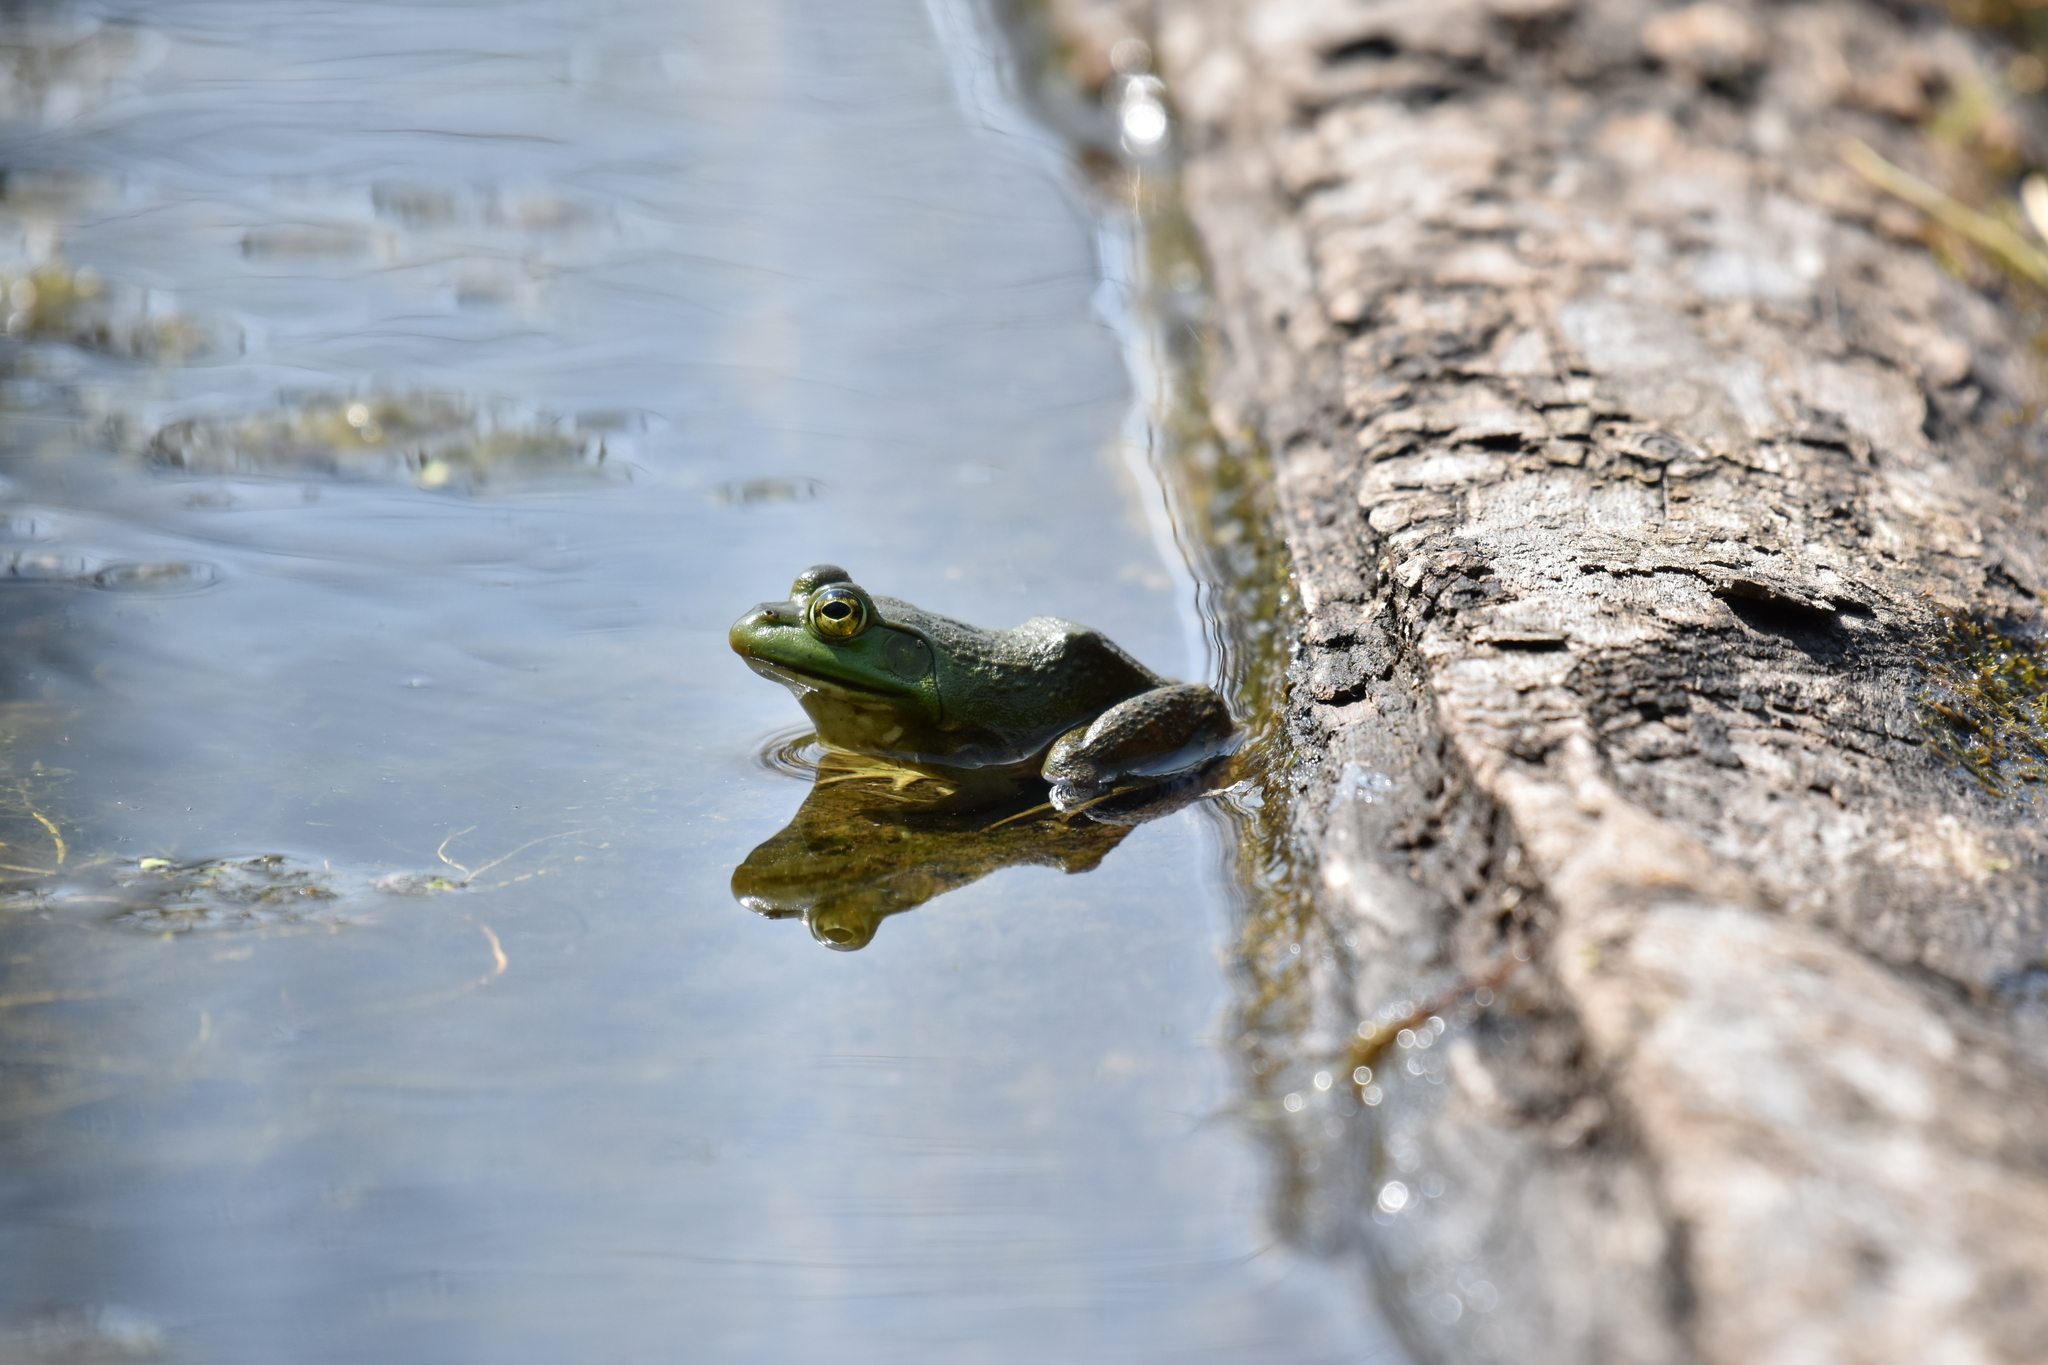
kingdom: Animalia
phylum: Chordata
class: Amphibia
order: Anura
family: Ranidae
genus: Lithobates
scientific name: Lithobates catesbeianus
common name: American bullfrog
